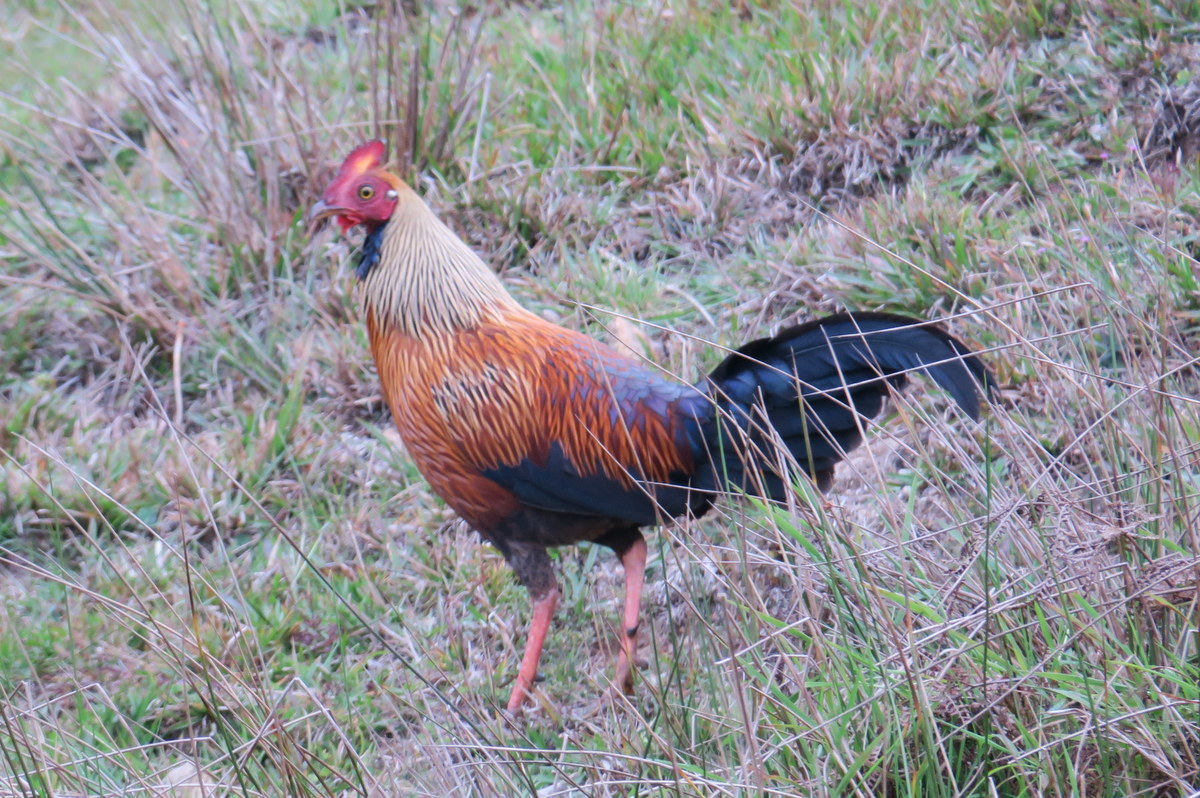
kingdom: Animalia
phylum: Chordata
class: Aves
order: Galliformes
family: Phasianidae
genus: Gallus
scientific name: Gallus lafayettii
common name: Sri lanka junglefowl
